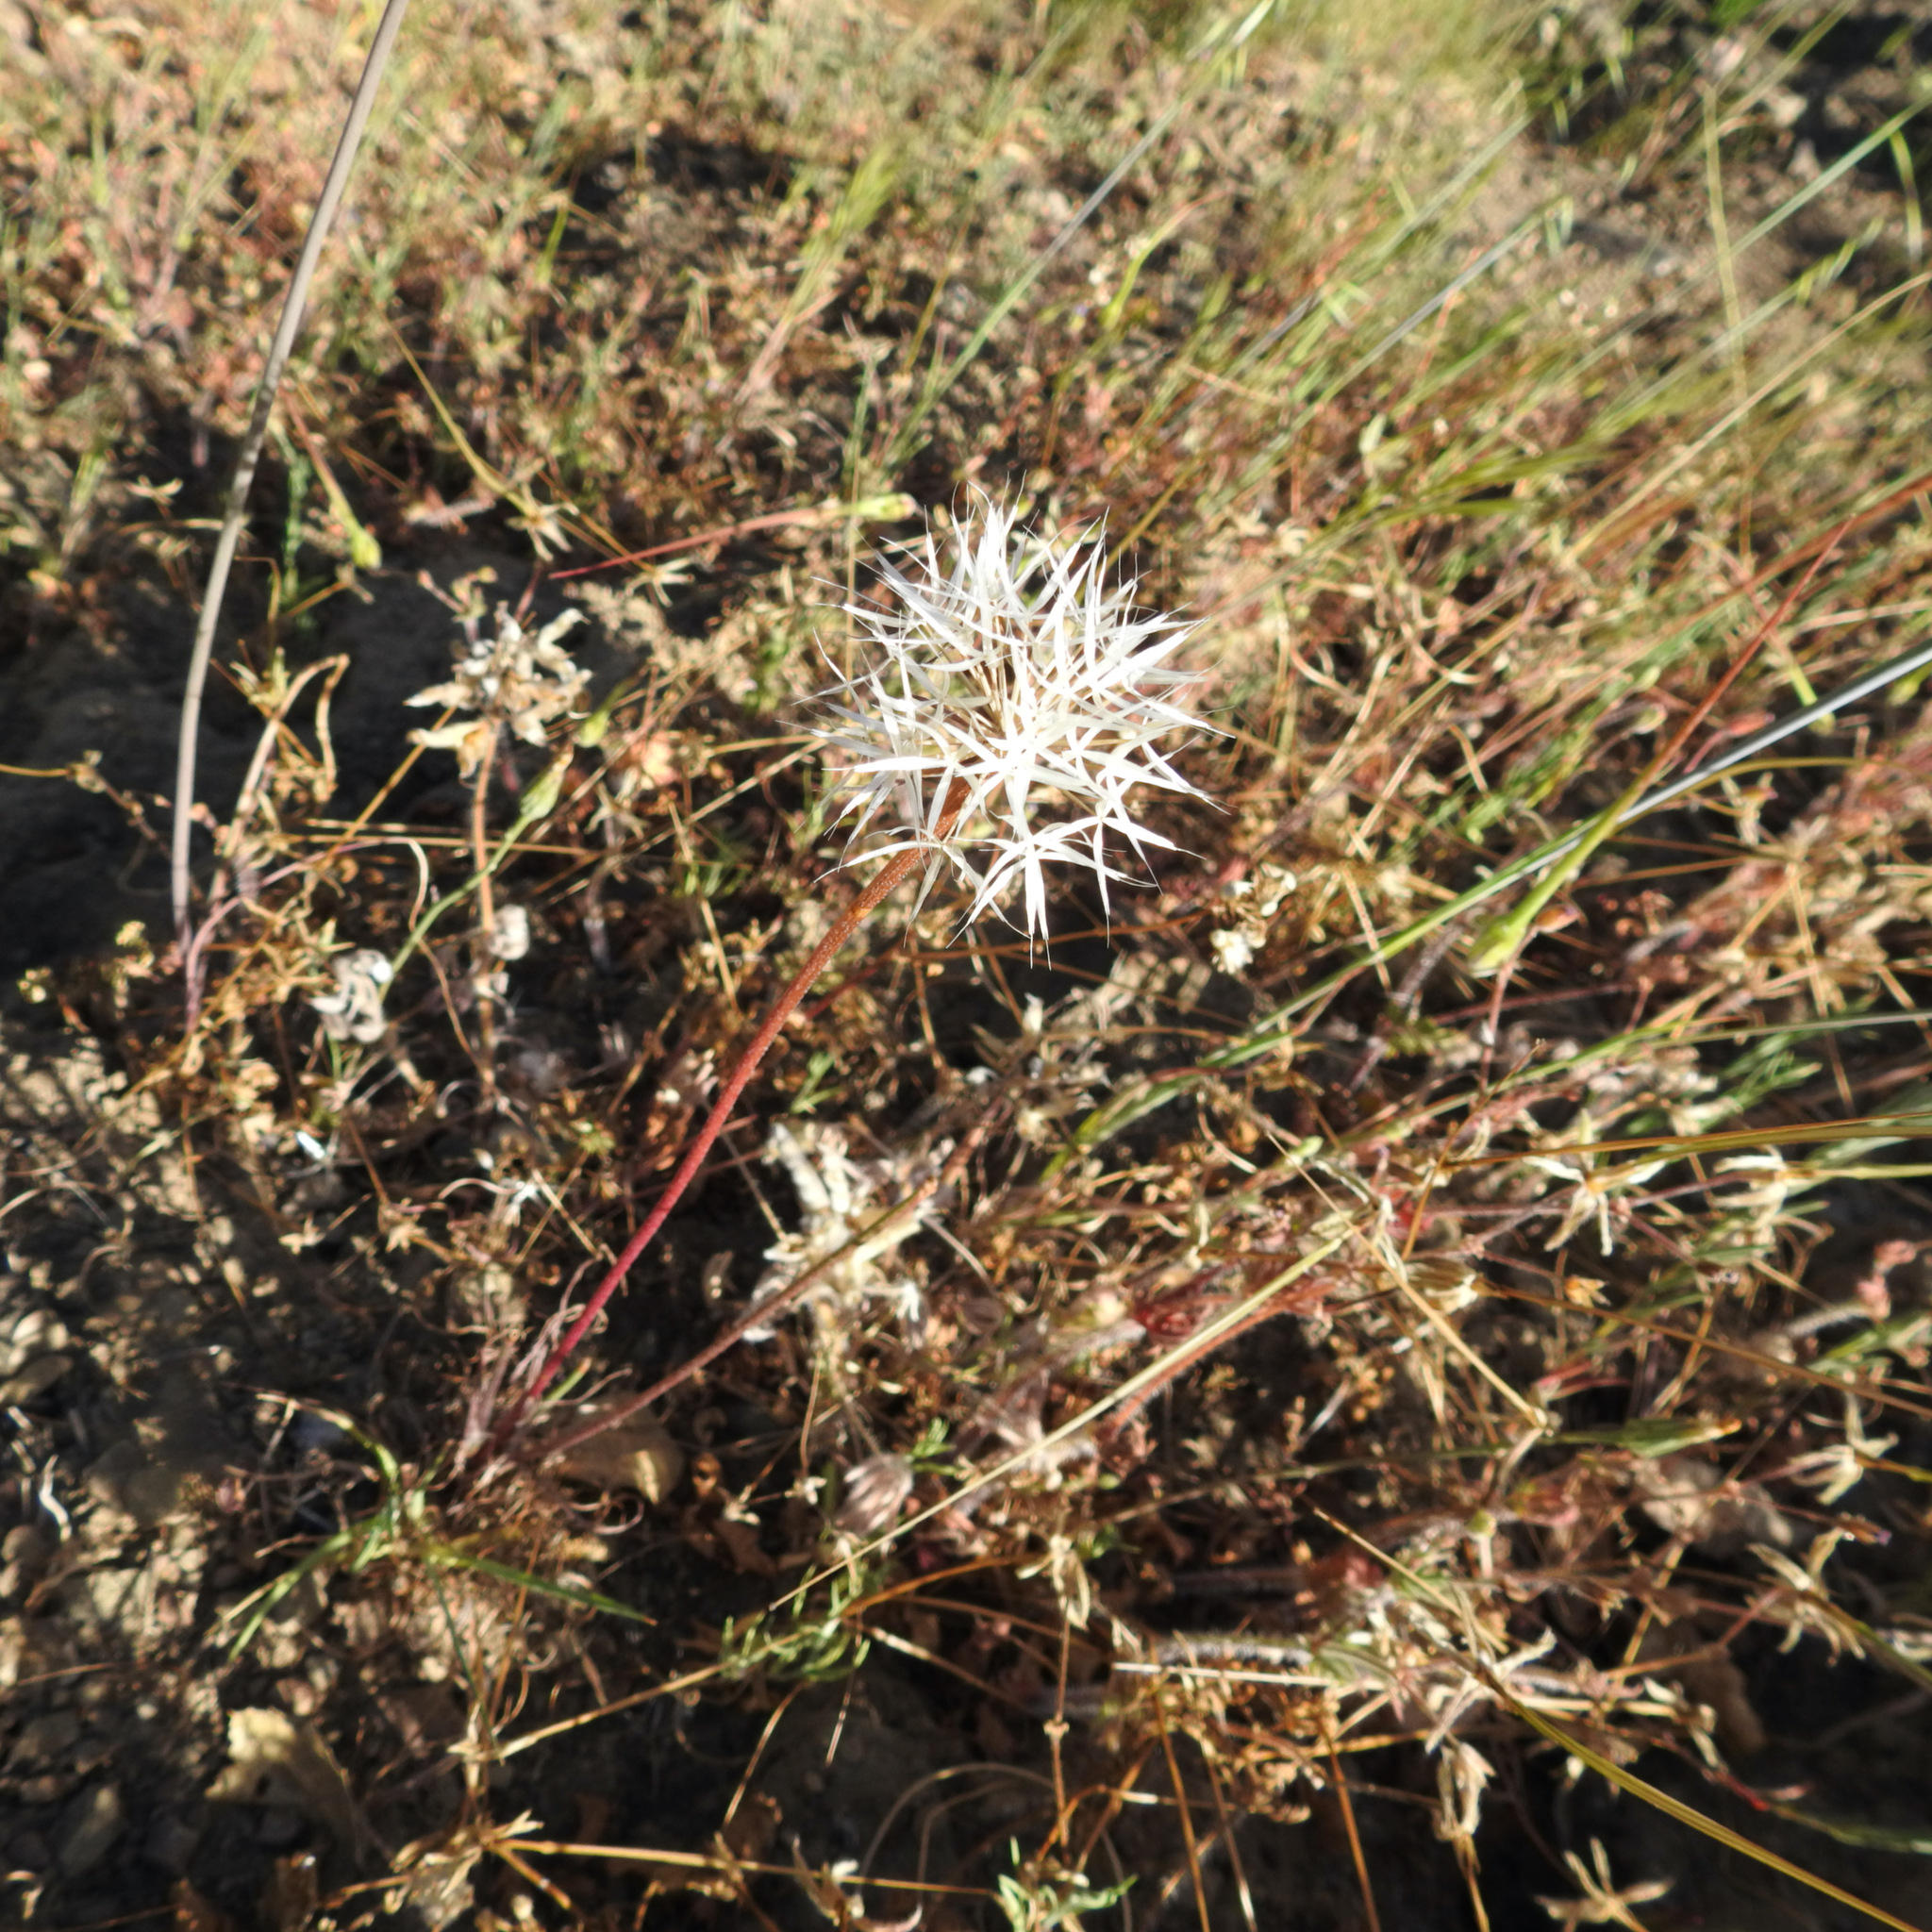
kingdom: Plantae
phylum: Tracheophyta
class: Magnoliopsida
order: Asterales
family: Asteraceae
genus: Microseris
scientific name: Microseris lindleyi
